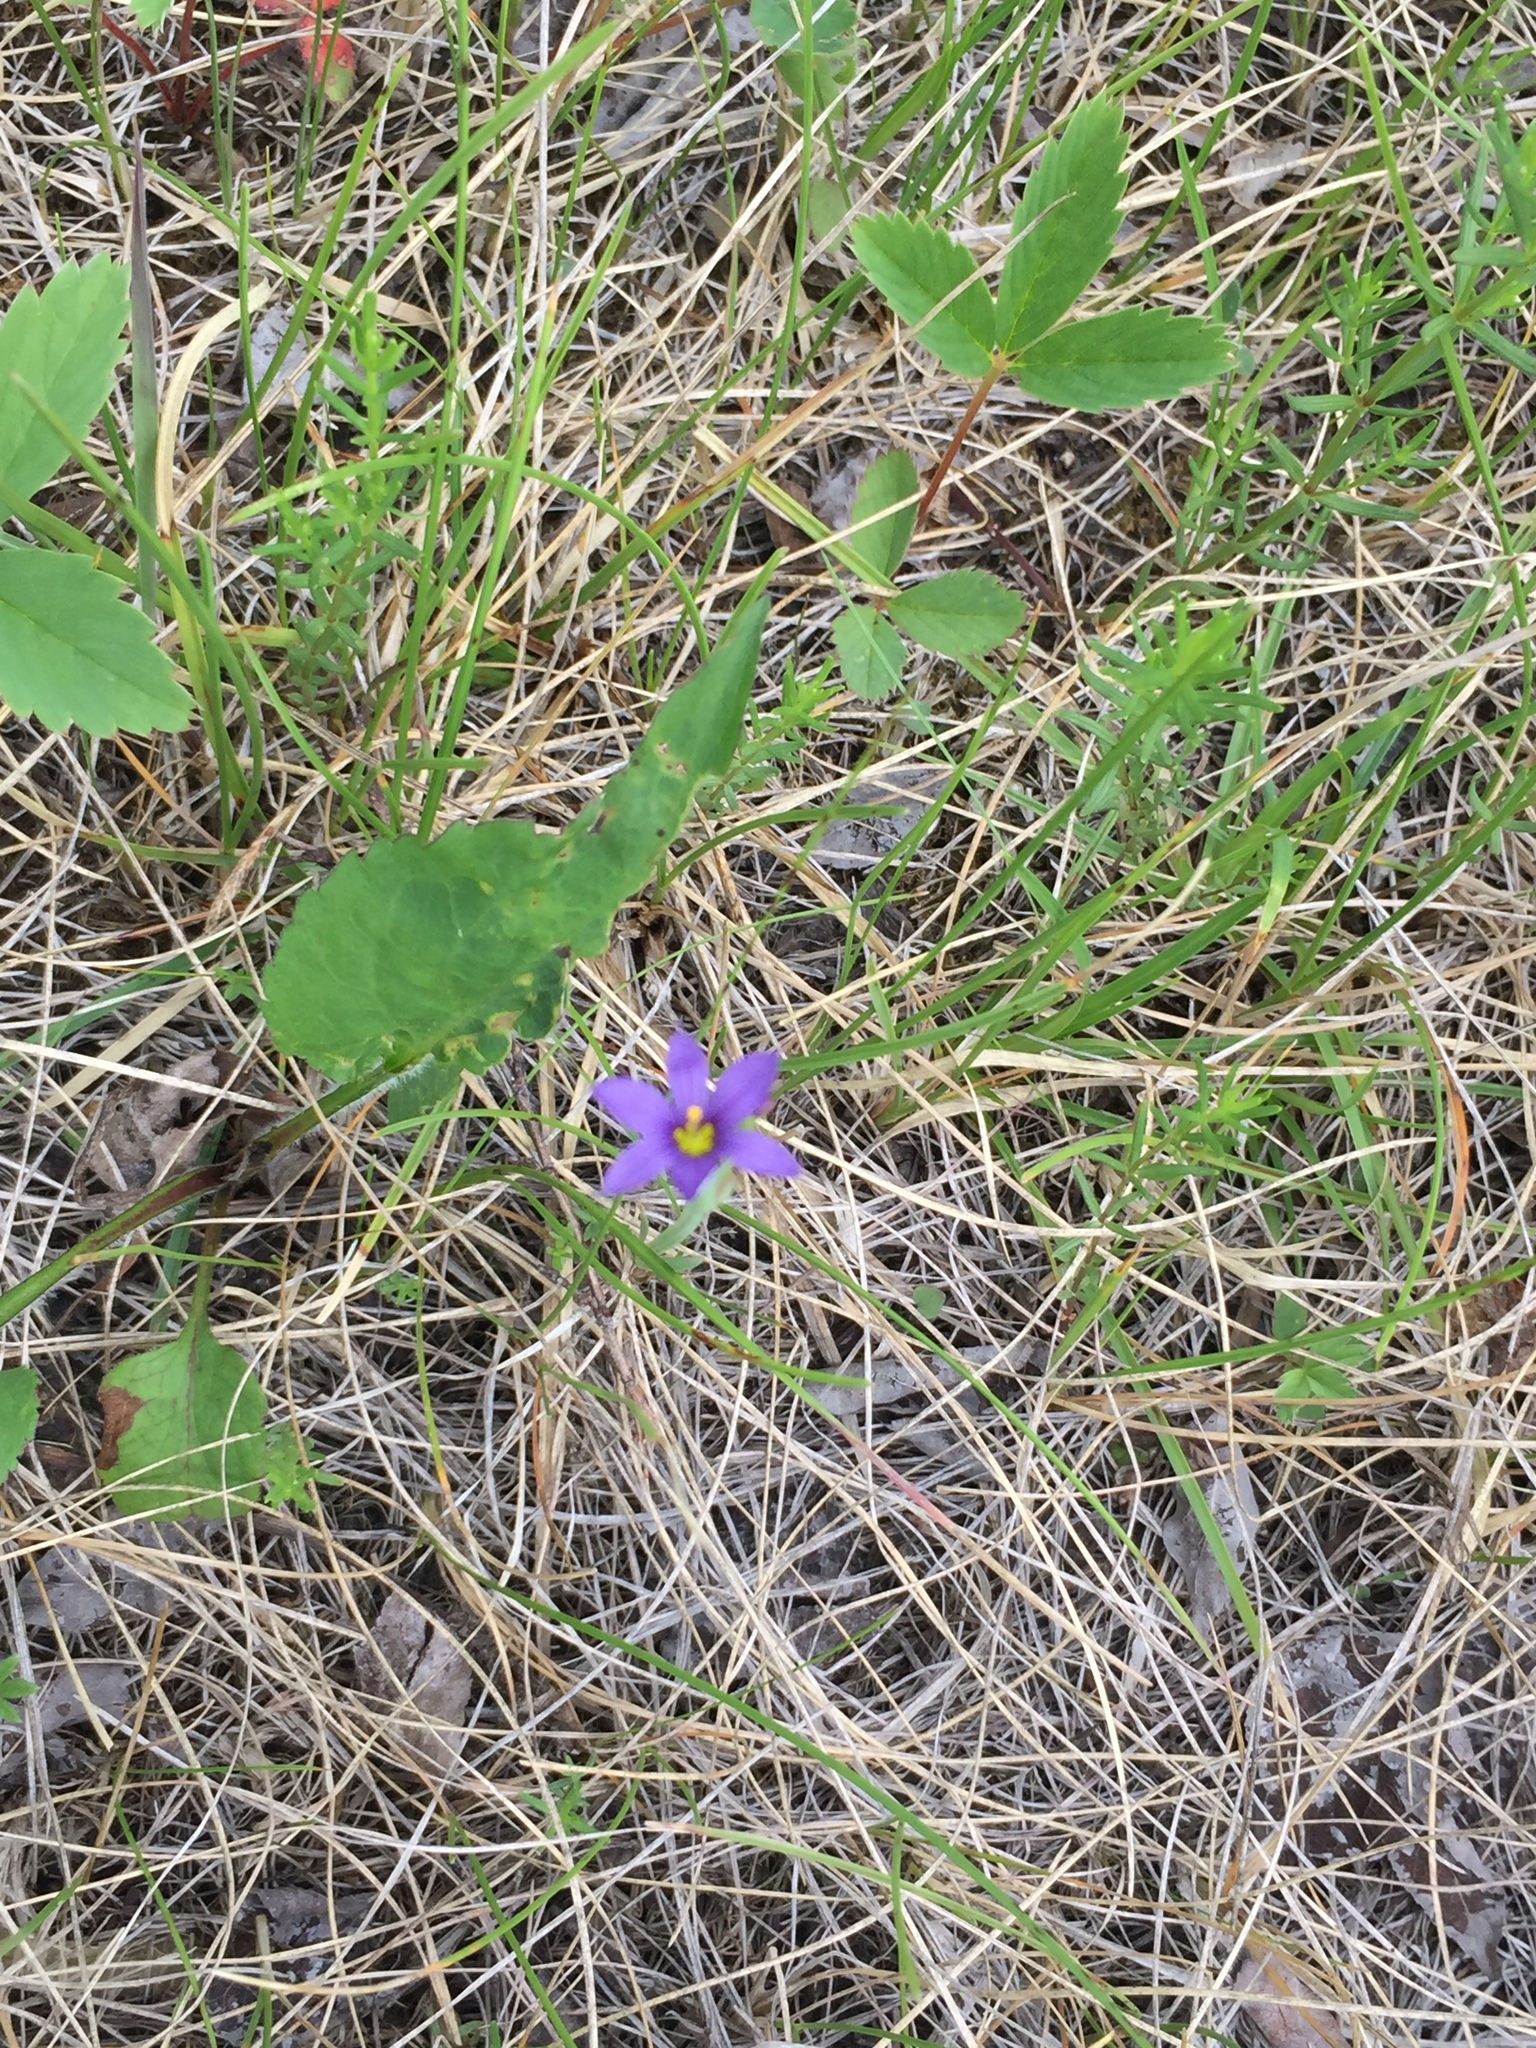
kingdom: Plantae
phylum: Tracheophyta
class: Liliopsida
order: Asparagales
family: Iridaceae
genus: Sisyrinchium
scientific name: Sisyrinchium montanum
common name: American blue-eyed-grass
